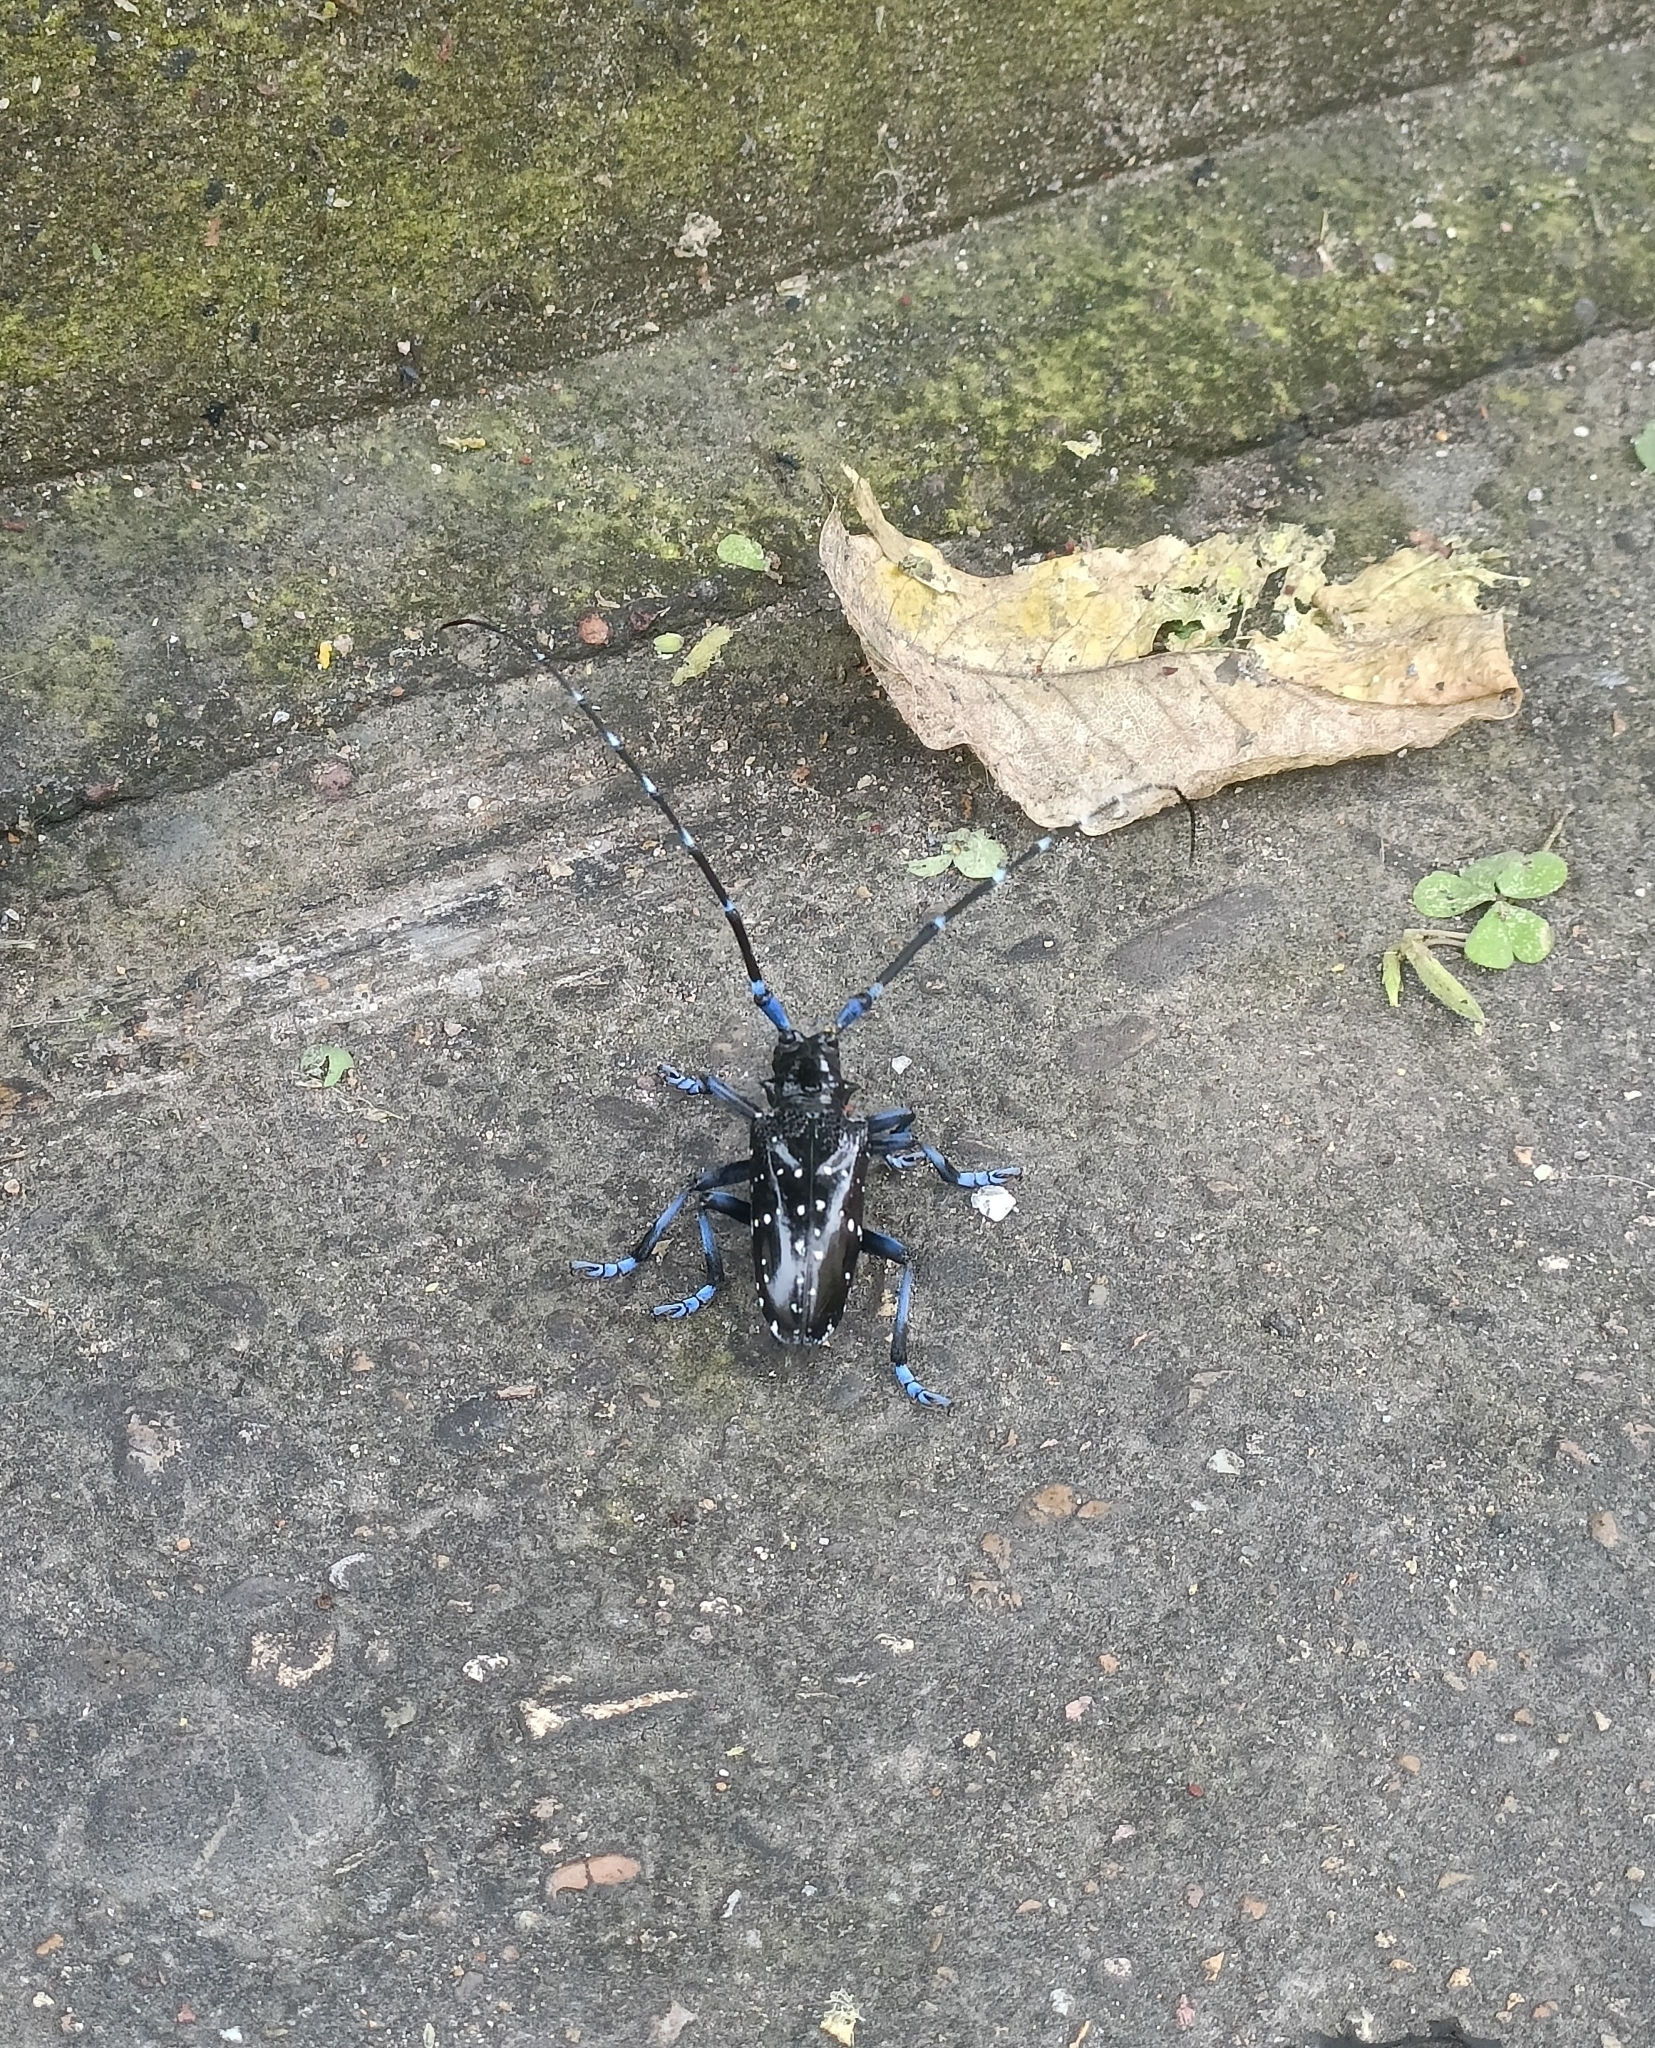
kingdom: Animalia
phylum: Arthropoda
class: Insecta
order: Coleoptera
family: Cerambycidae
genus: Anoplophora
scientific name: Anoplophora chinensis
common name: Citrus longhorned beetle
